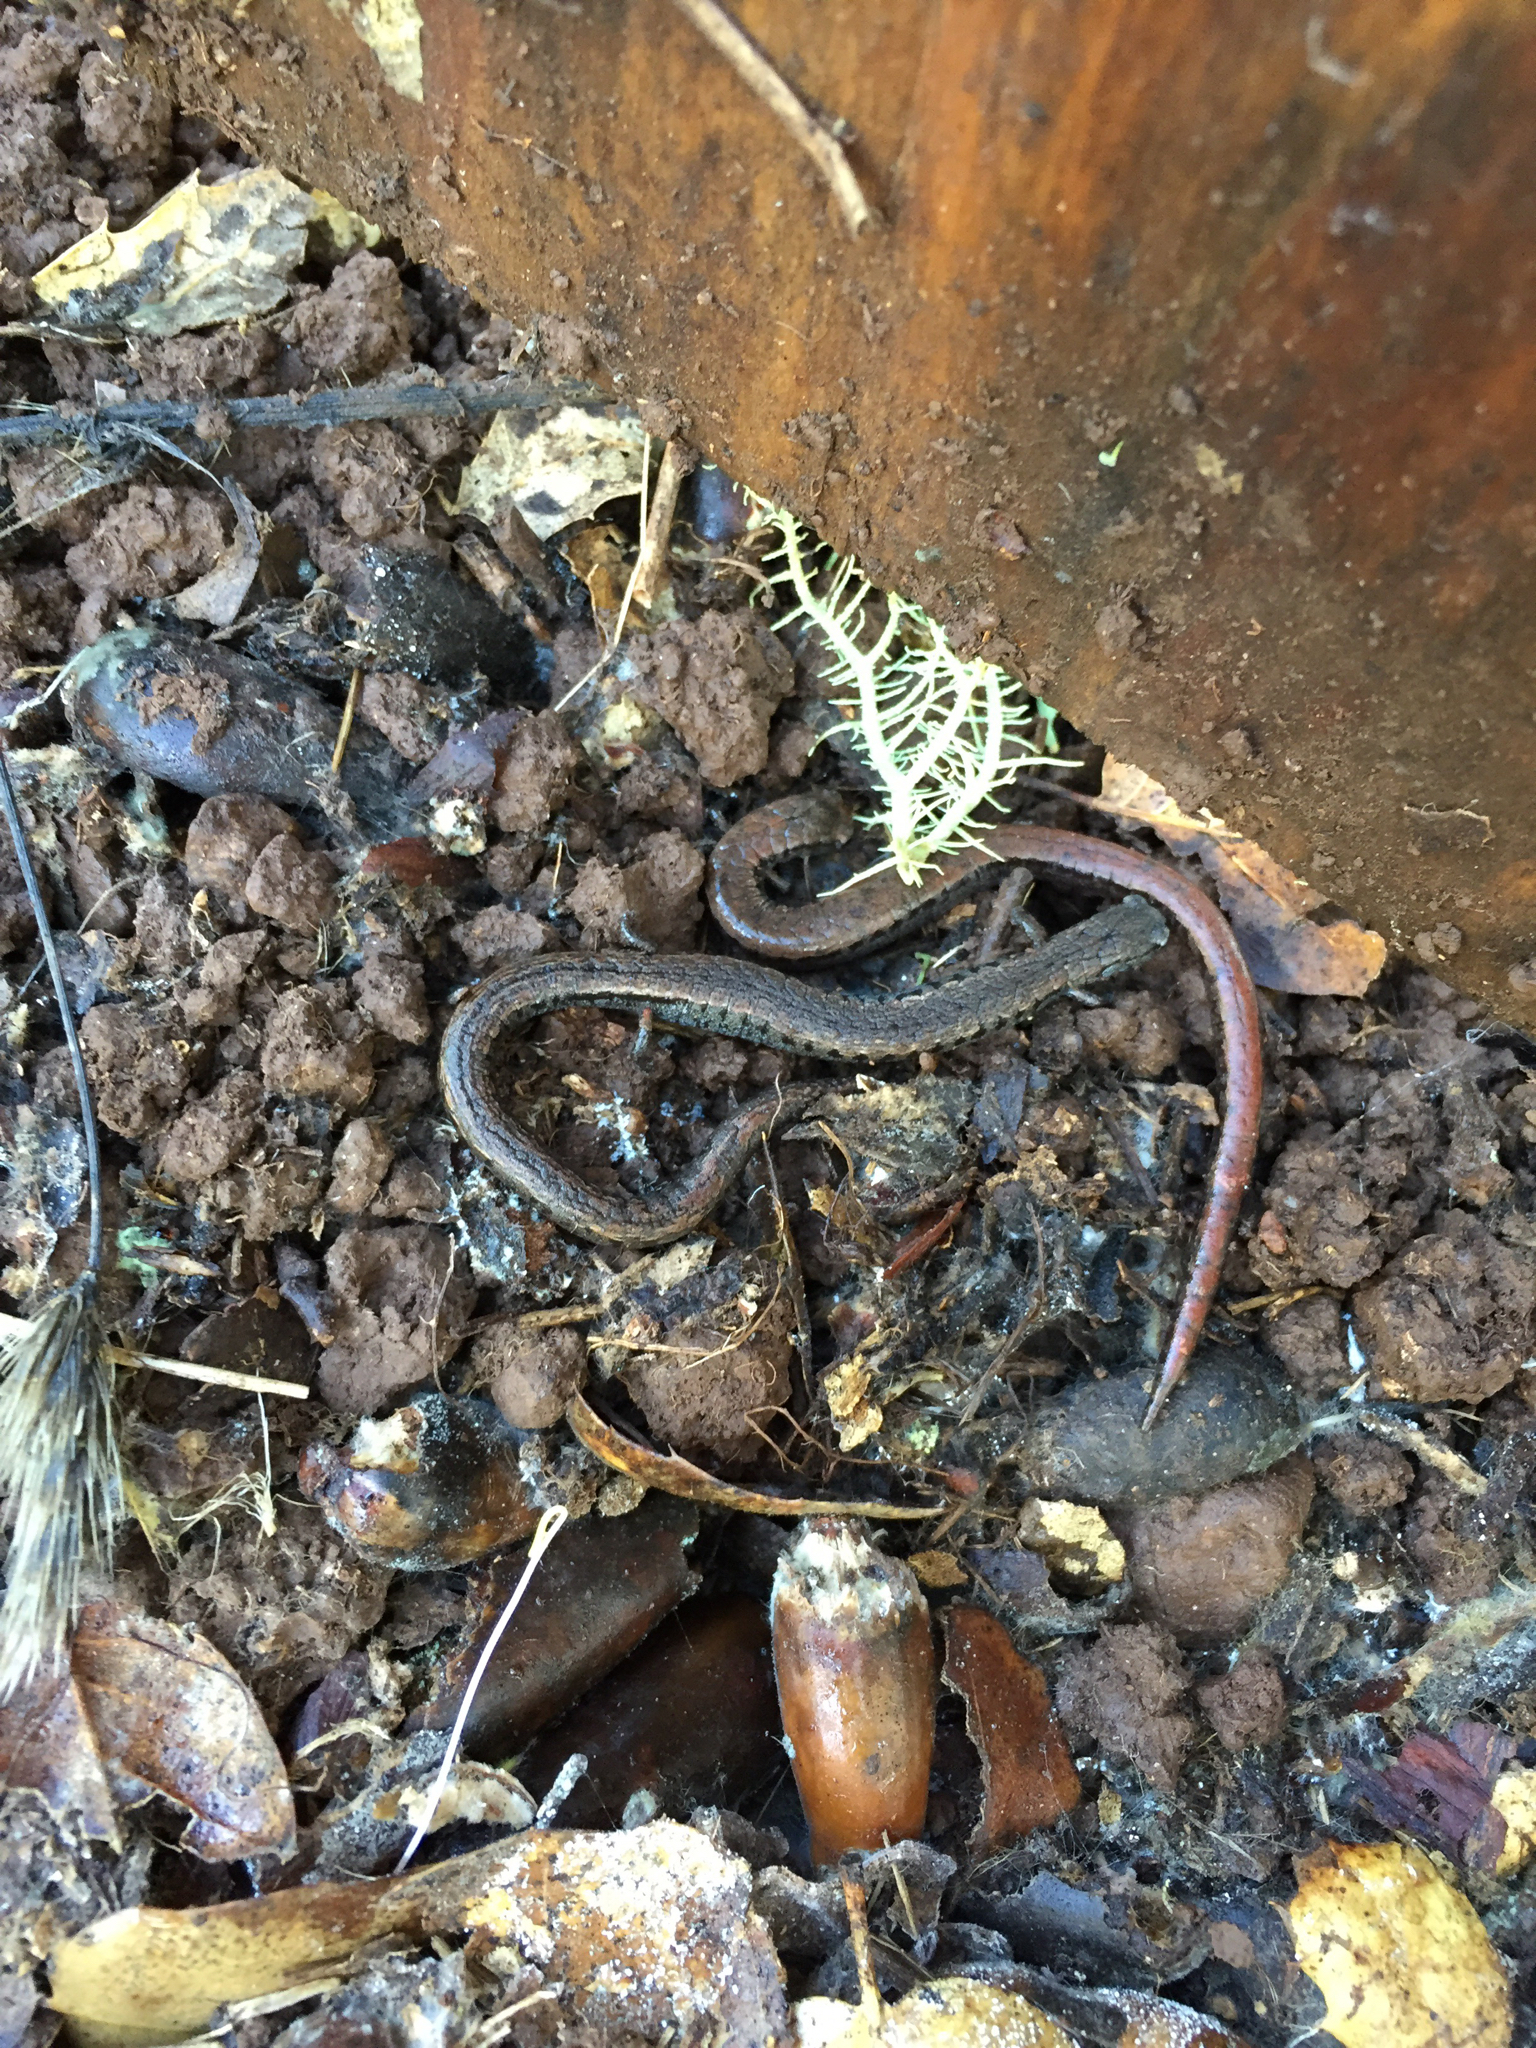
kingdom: Animalia
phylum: Chordata
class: Amphibia
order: Caudata
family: Plethodontidae
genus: Batrachoseps
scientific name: Batrachoseps attenuatus
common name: California slender salamander
